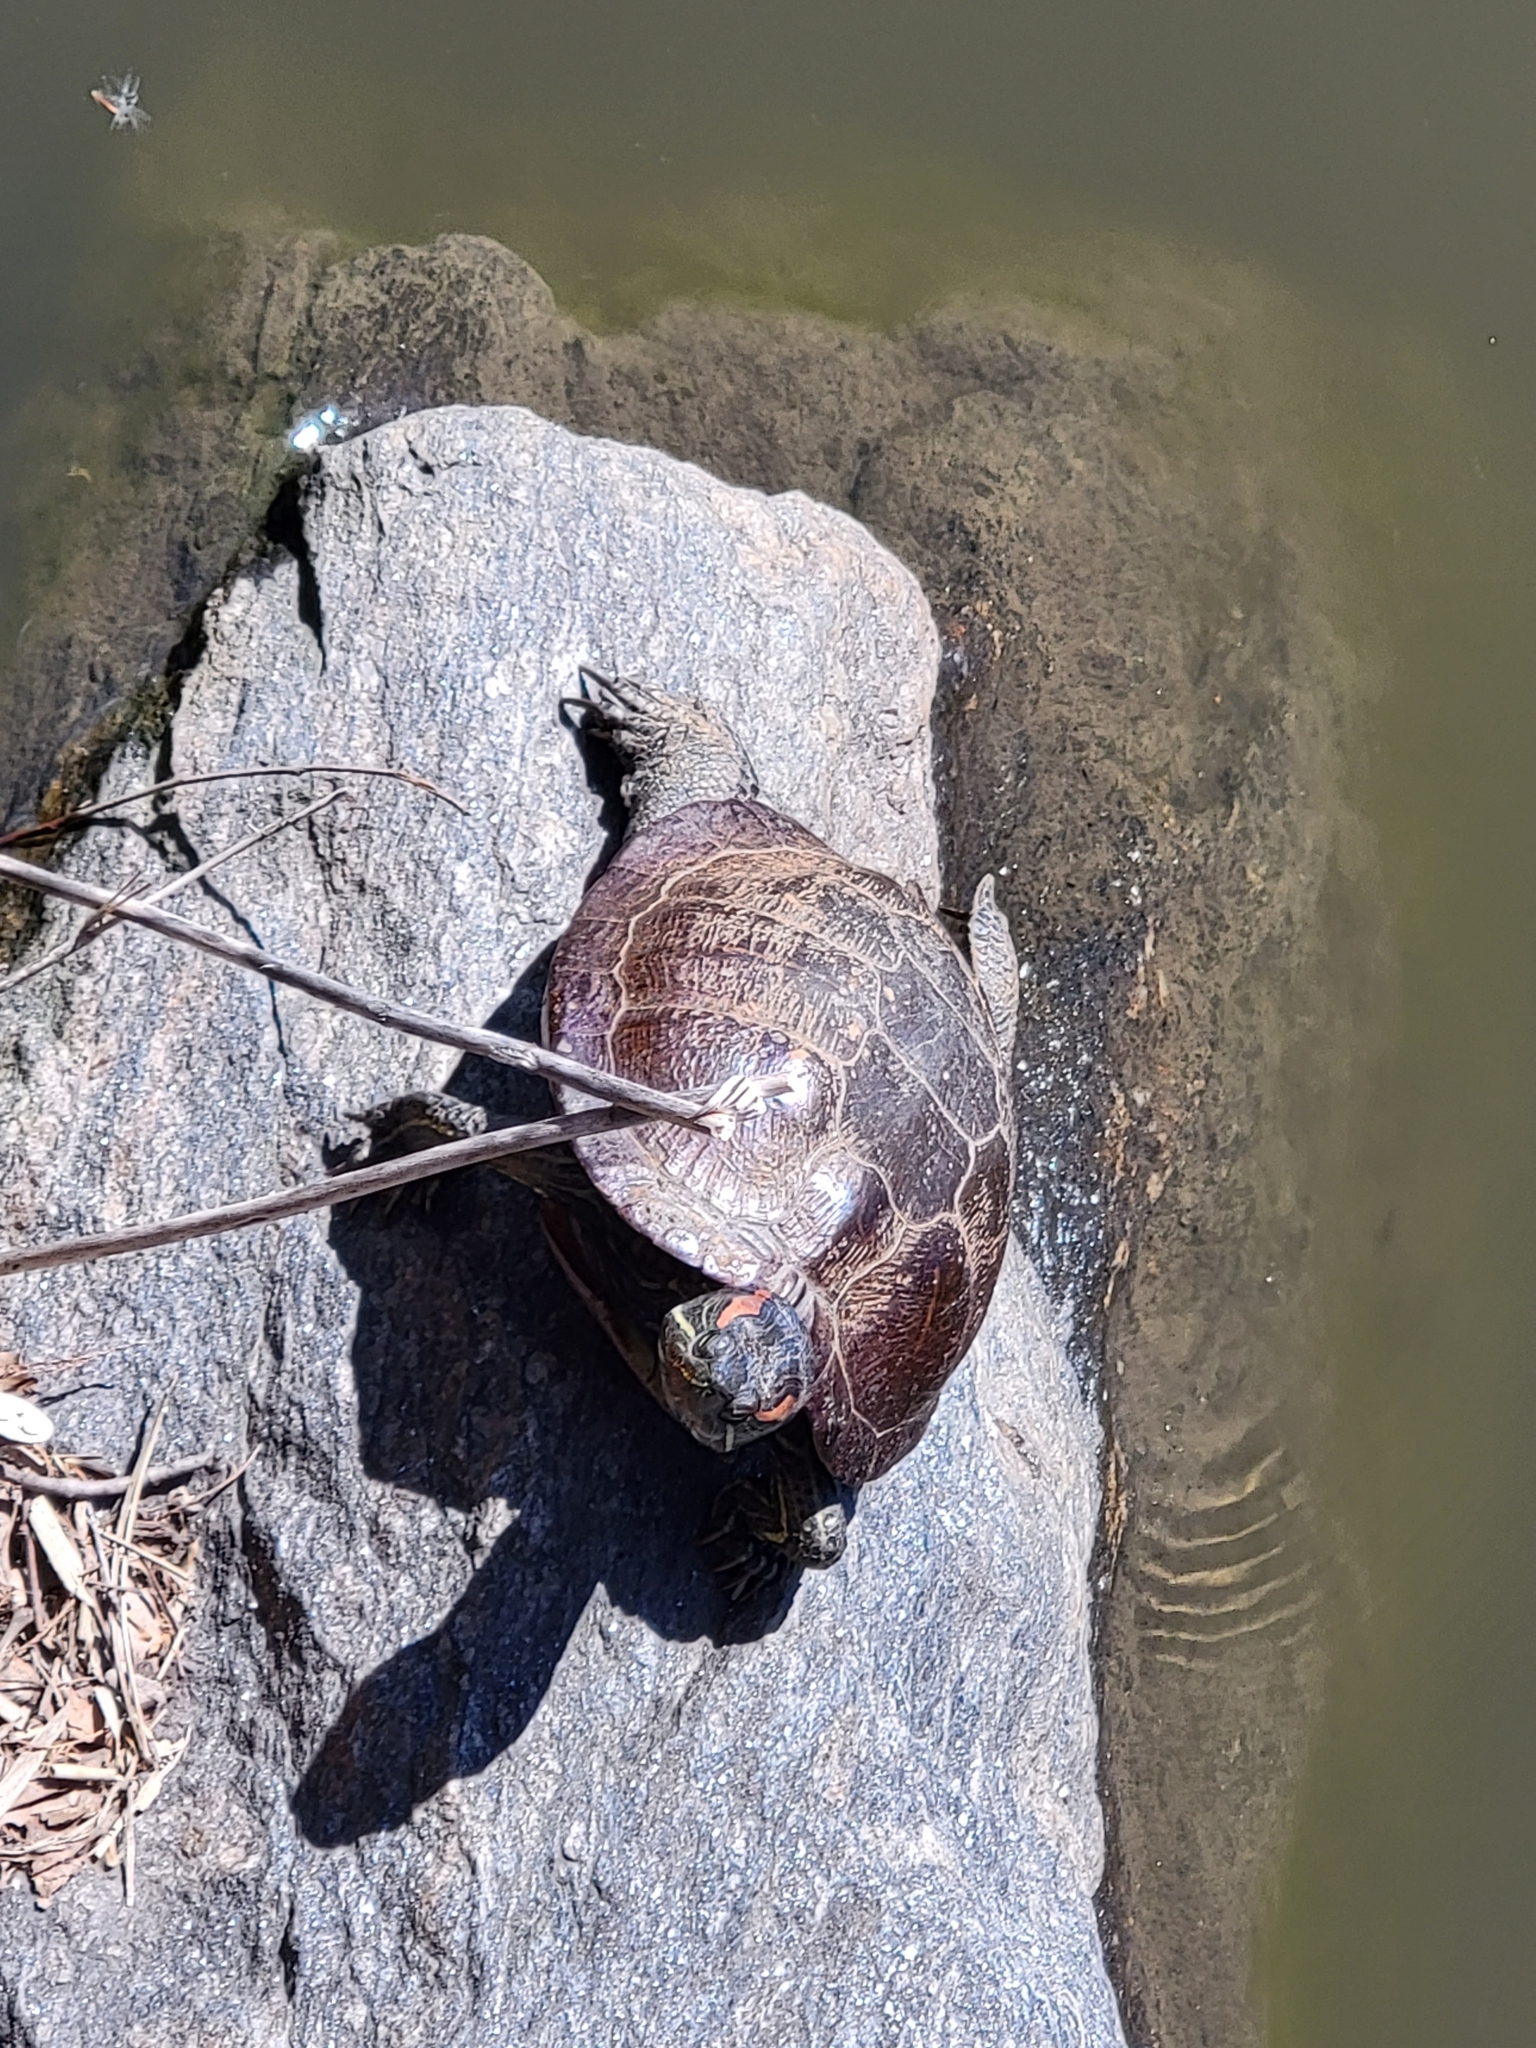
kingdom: Animalia
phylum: Chordata
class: Testudines
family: Emydidae
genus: Trachemys
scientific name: Trachemys scripta
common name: Slider
